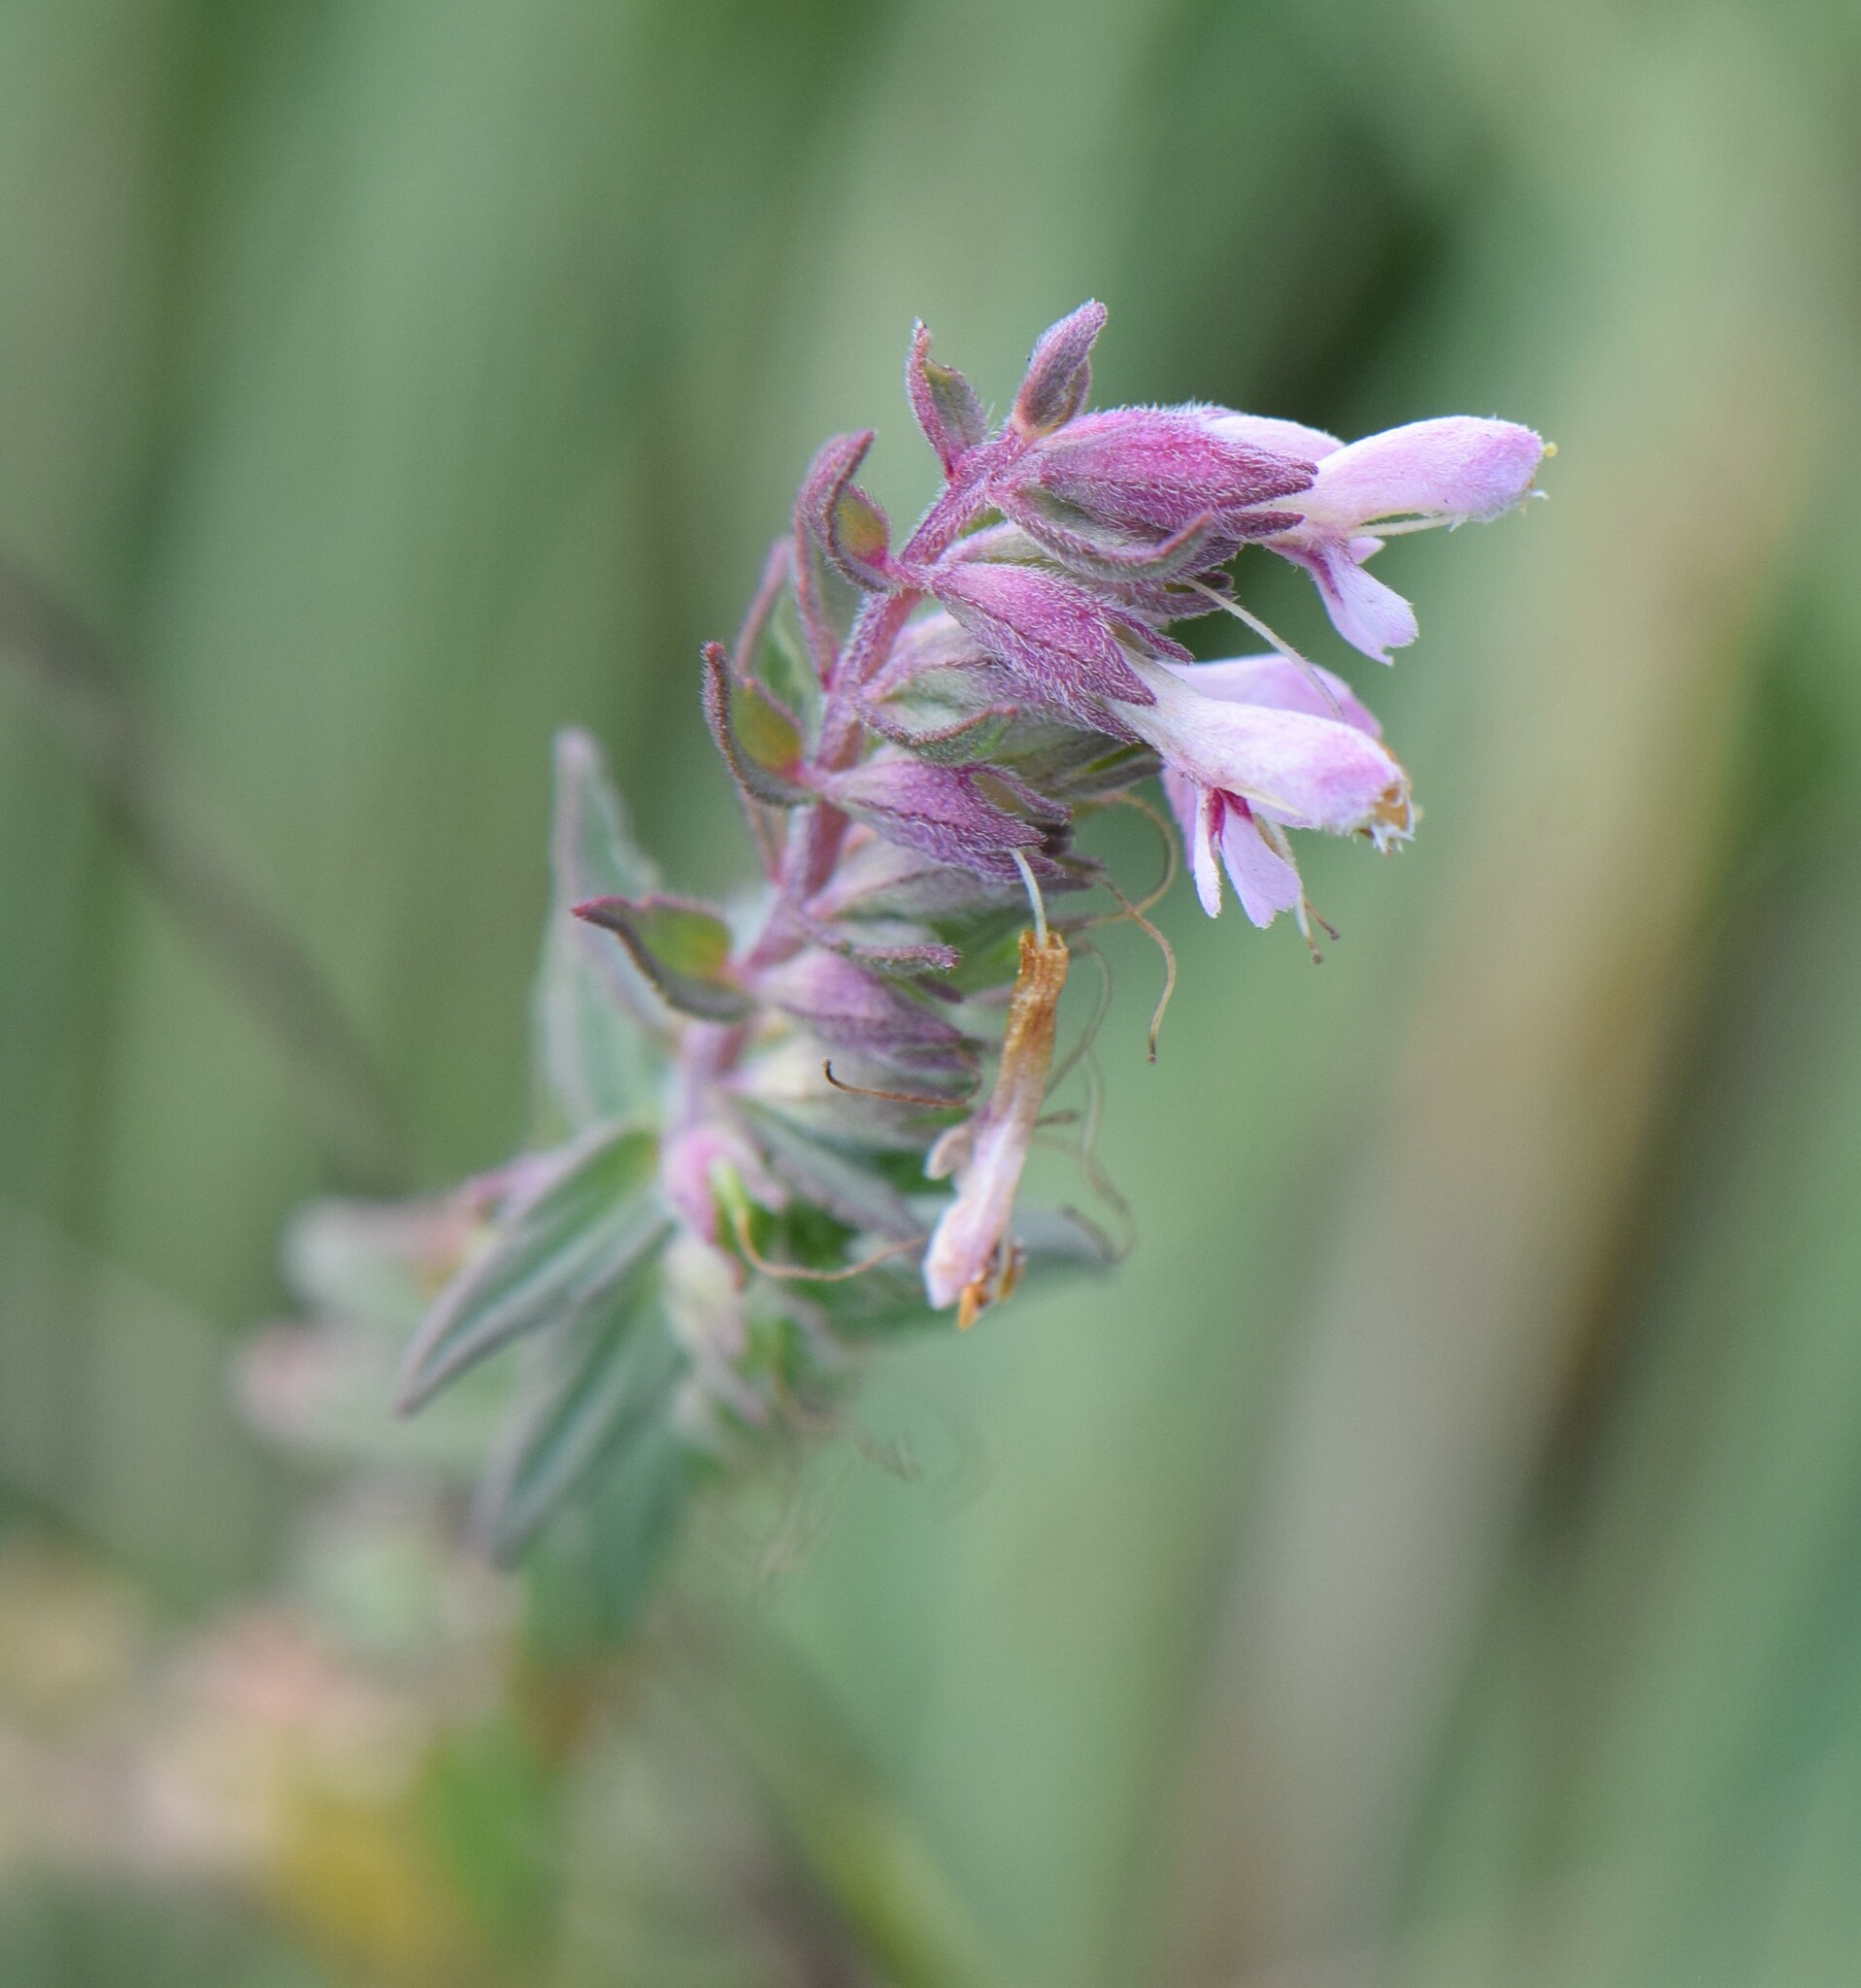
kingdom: Plantae
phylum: Tracheophyta
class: Magnoliopsida
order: Lamiales
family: Orobanchaceae
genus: Odontites
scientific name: Odontites vulgaris
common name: Broomrape
